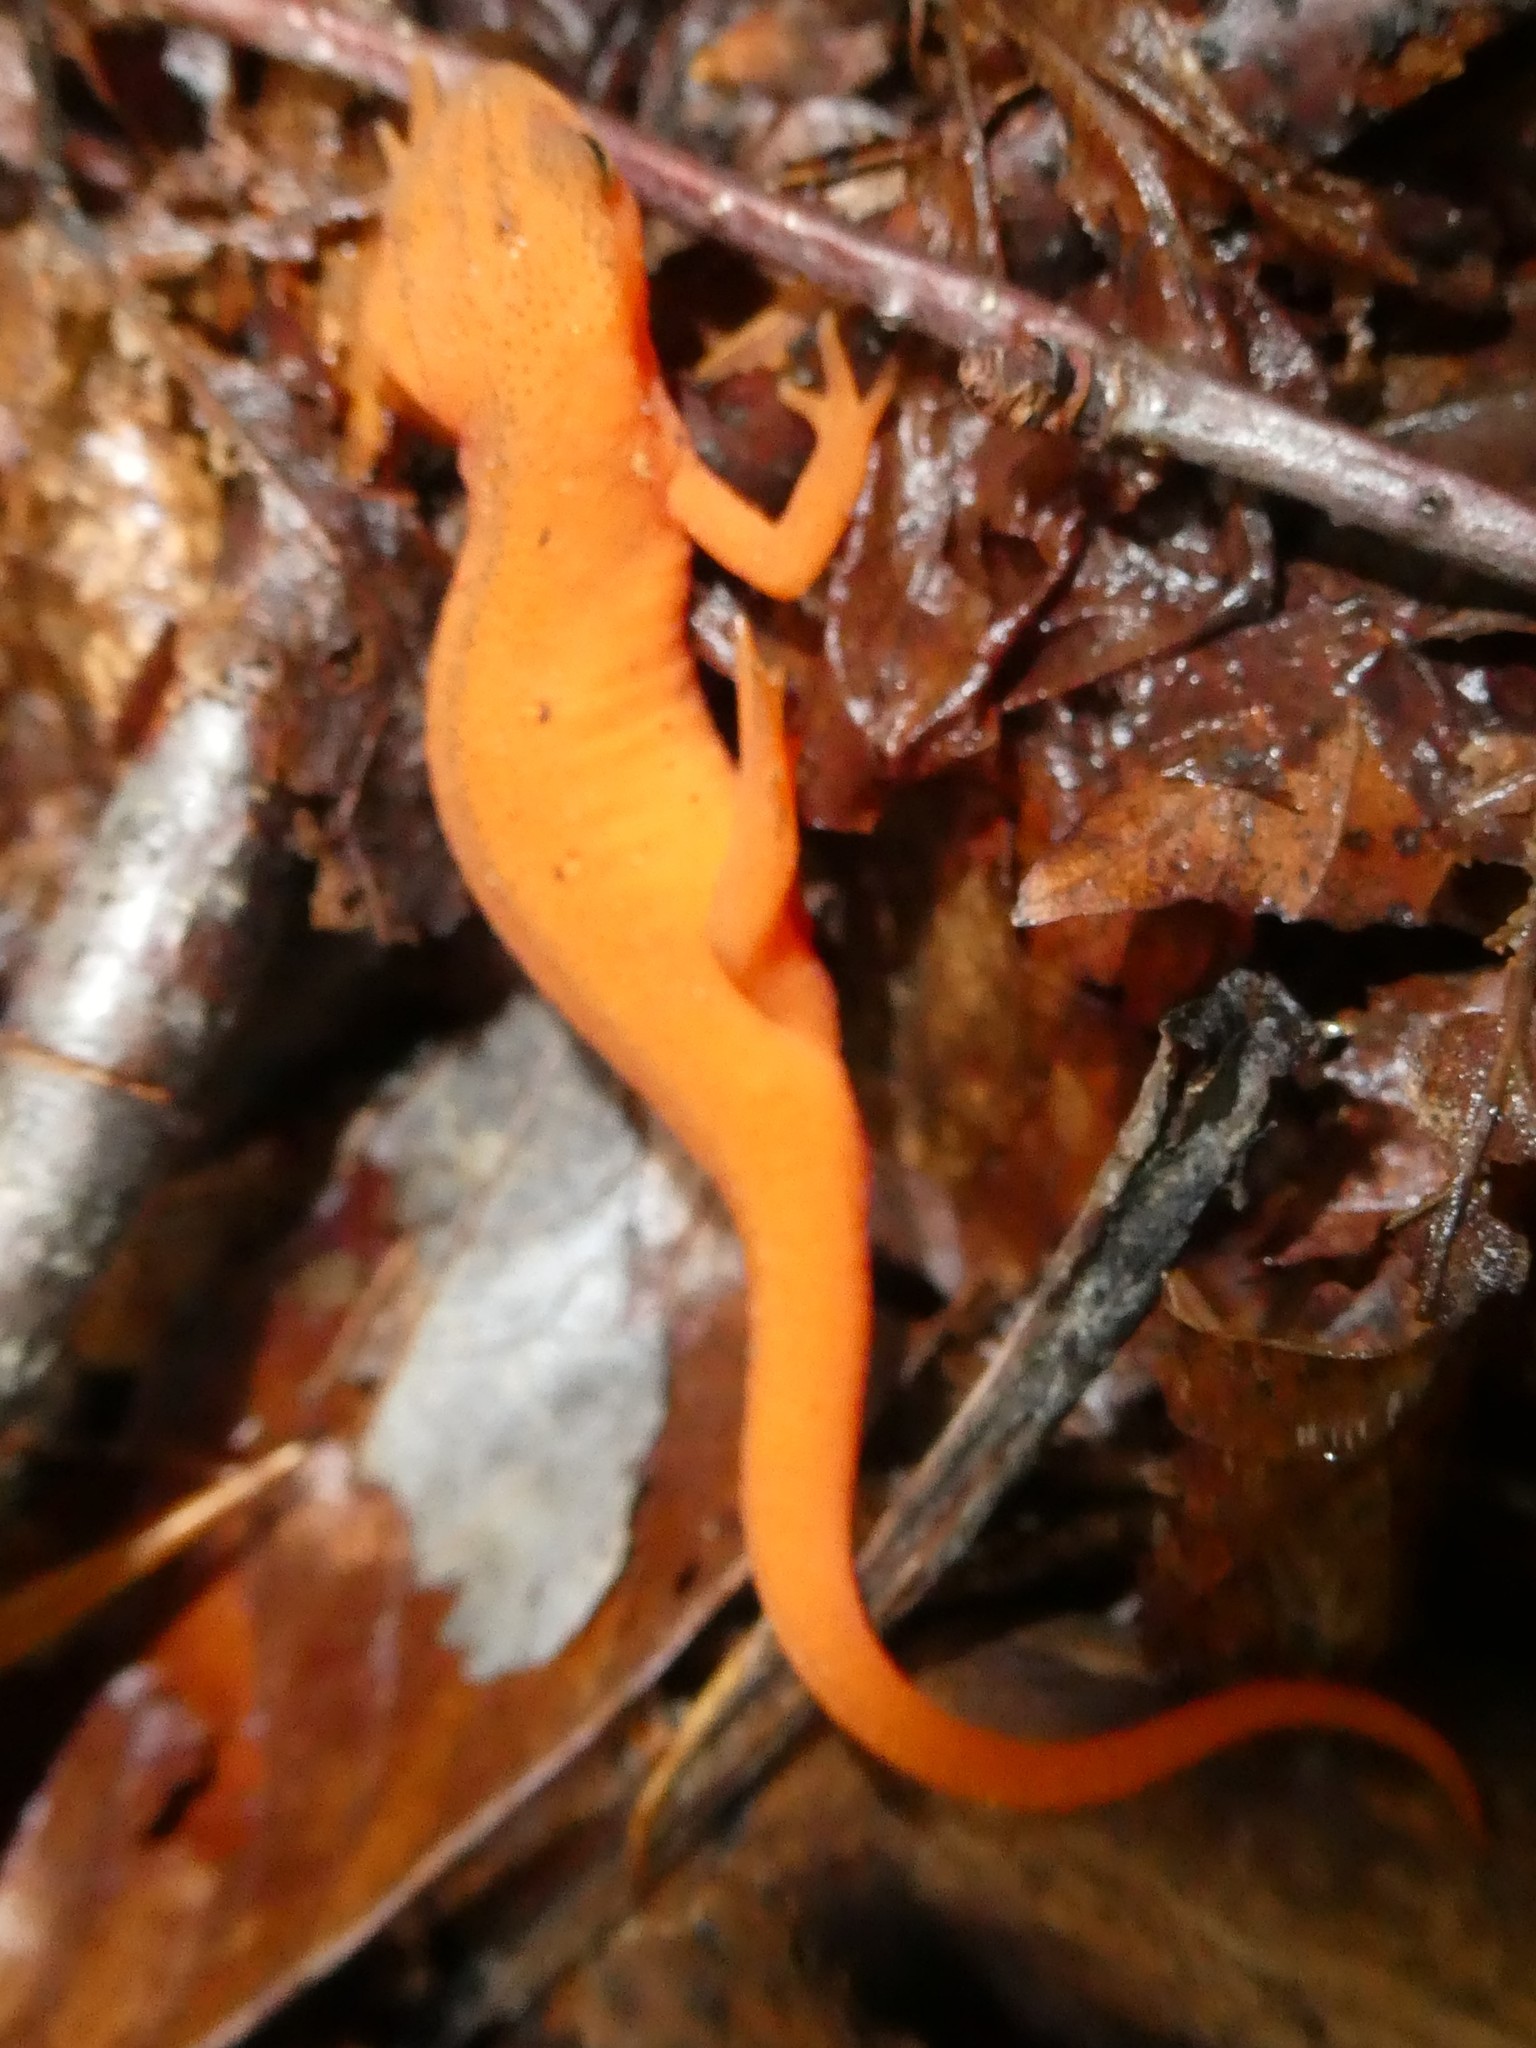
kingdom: Animalia
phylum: Chordata
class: Amphibia
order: Caudata
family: Salamandridae
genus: Notophthalmus
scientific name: Notophthalmus viridescens
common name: Eastern newt
